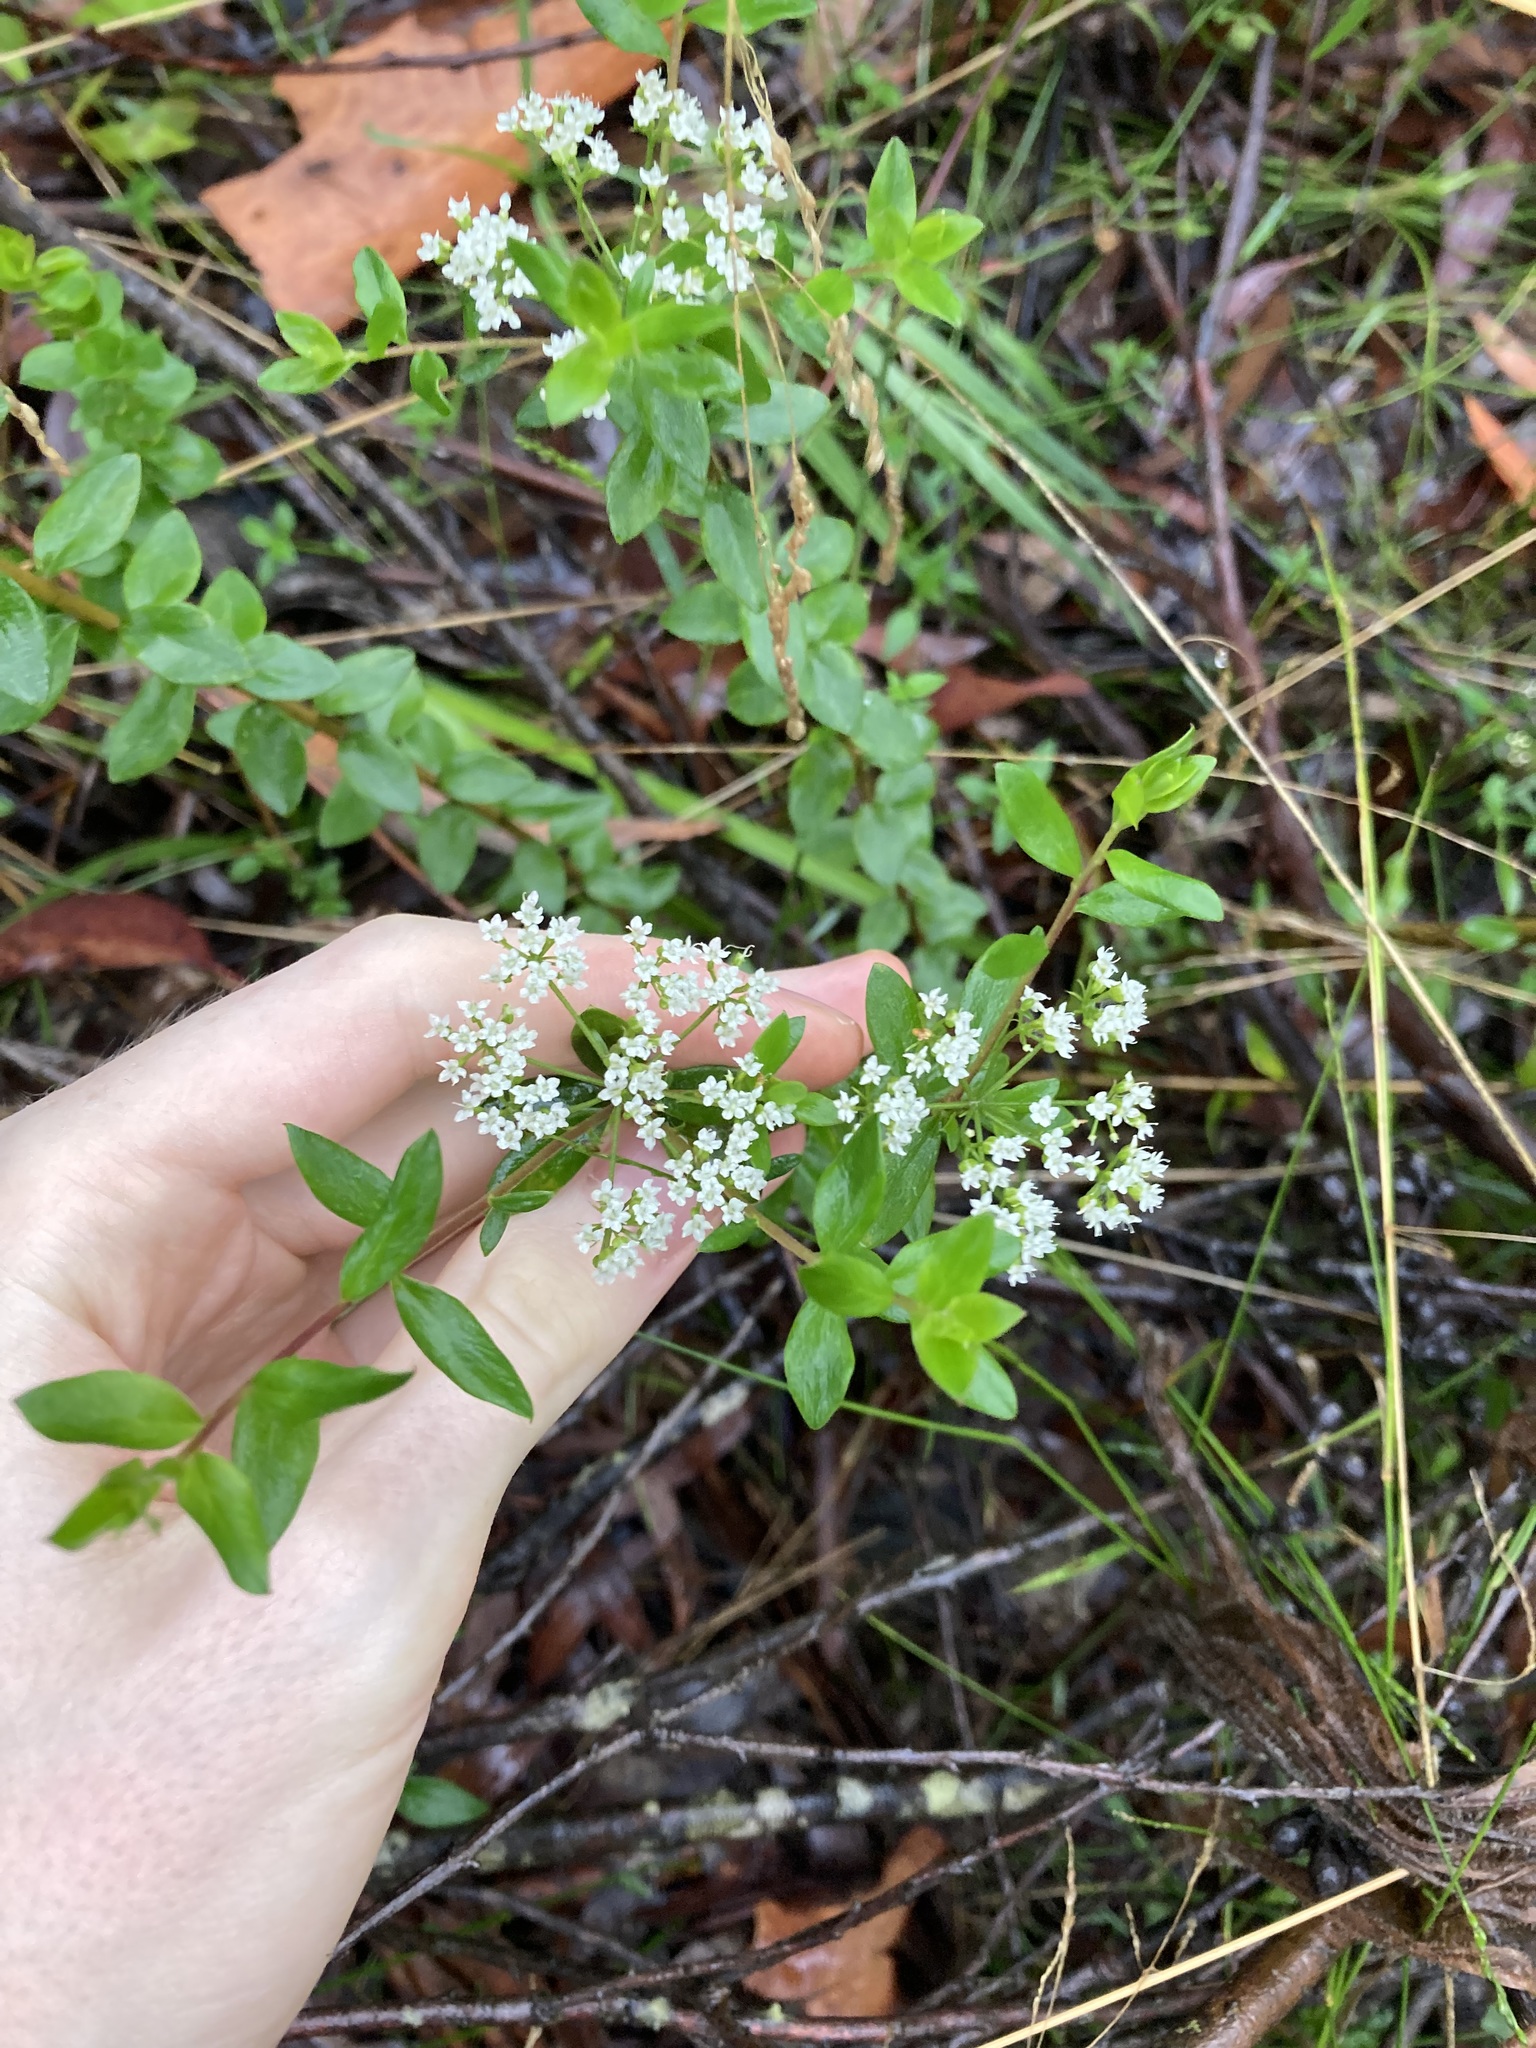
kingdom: Plantae
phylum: Tracheophyta
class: Magnoliopsida
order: Apiales
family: Apiaceae
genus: Platysace
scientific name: Platysace lanceolata
